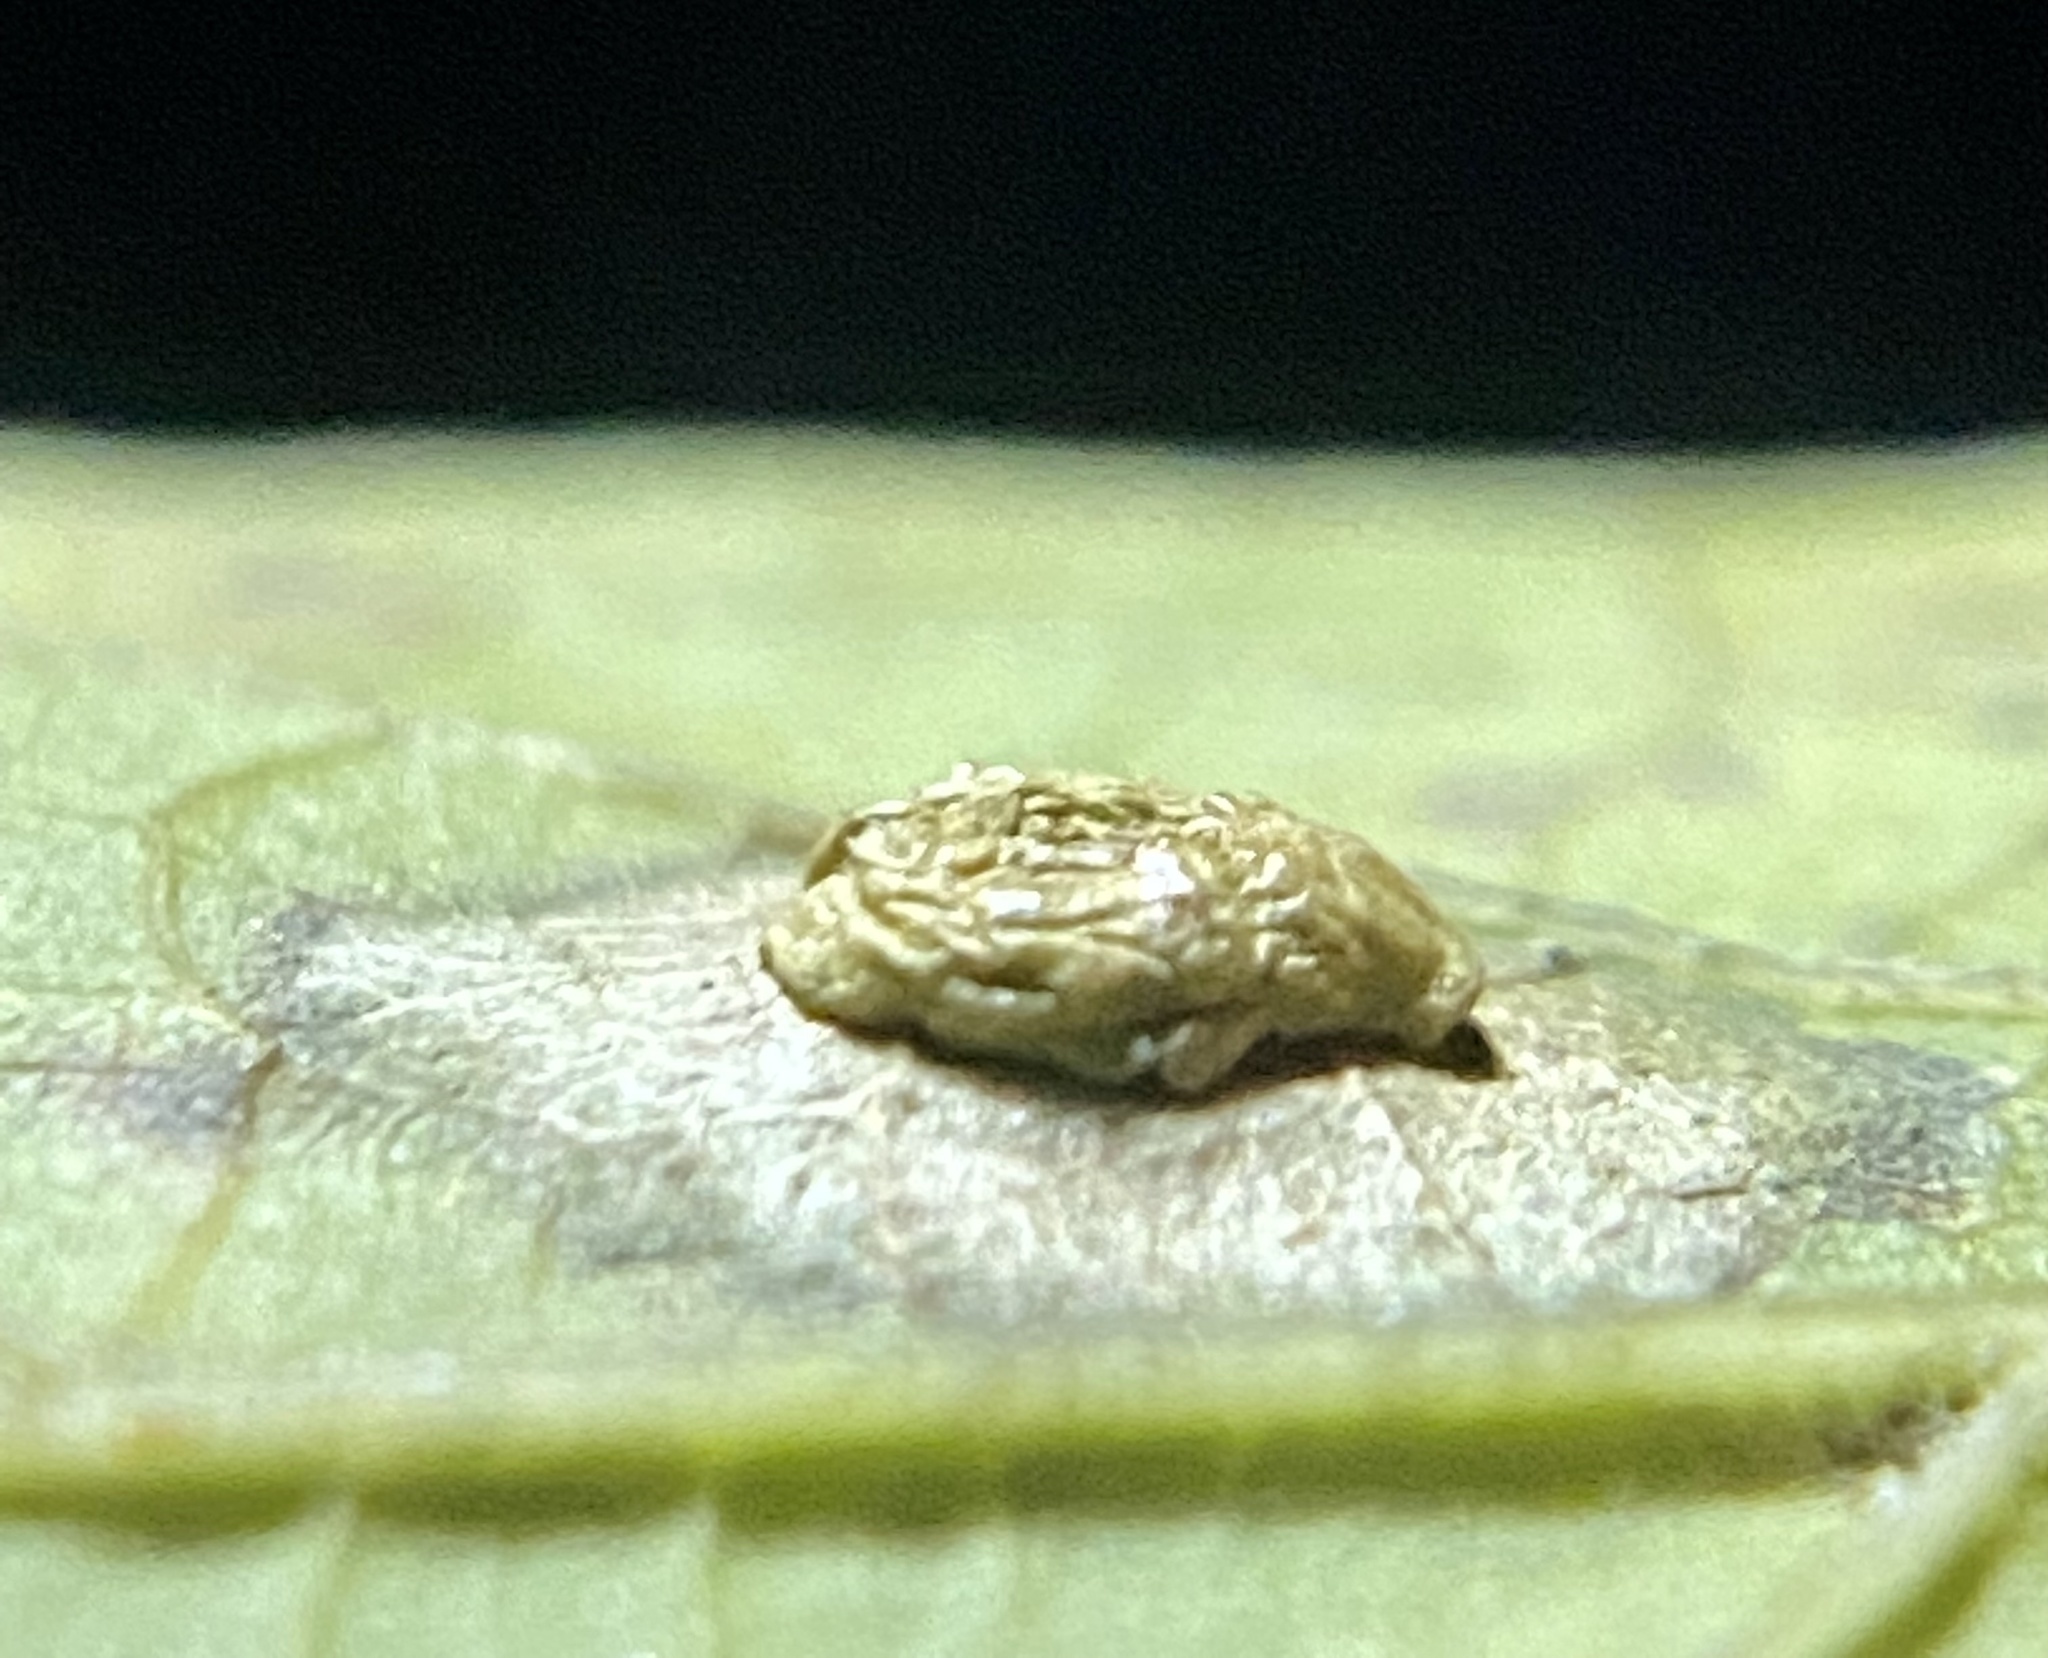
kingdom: Animalia
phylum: Arthropoda
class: Insecta
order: Hemiptera
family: Aphalaridae
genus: Pachypsylla
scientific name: Pachypsylla celtidisasterisca
